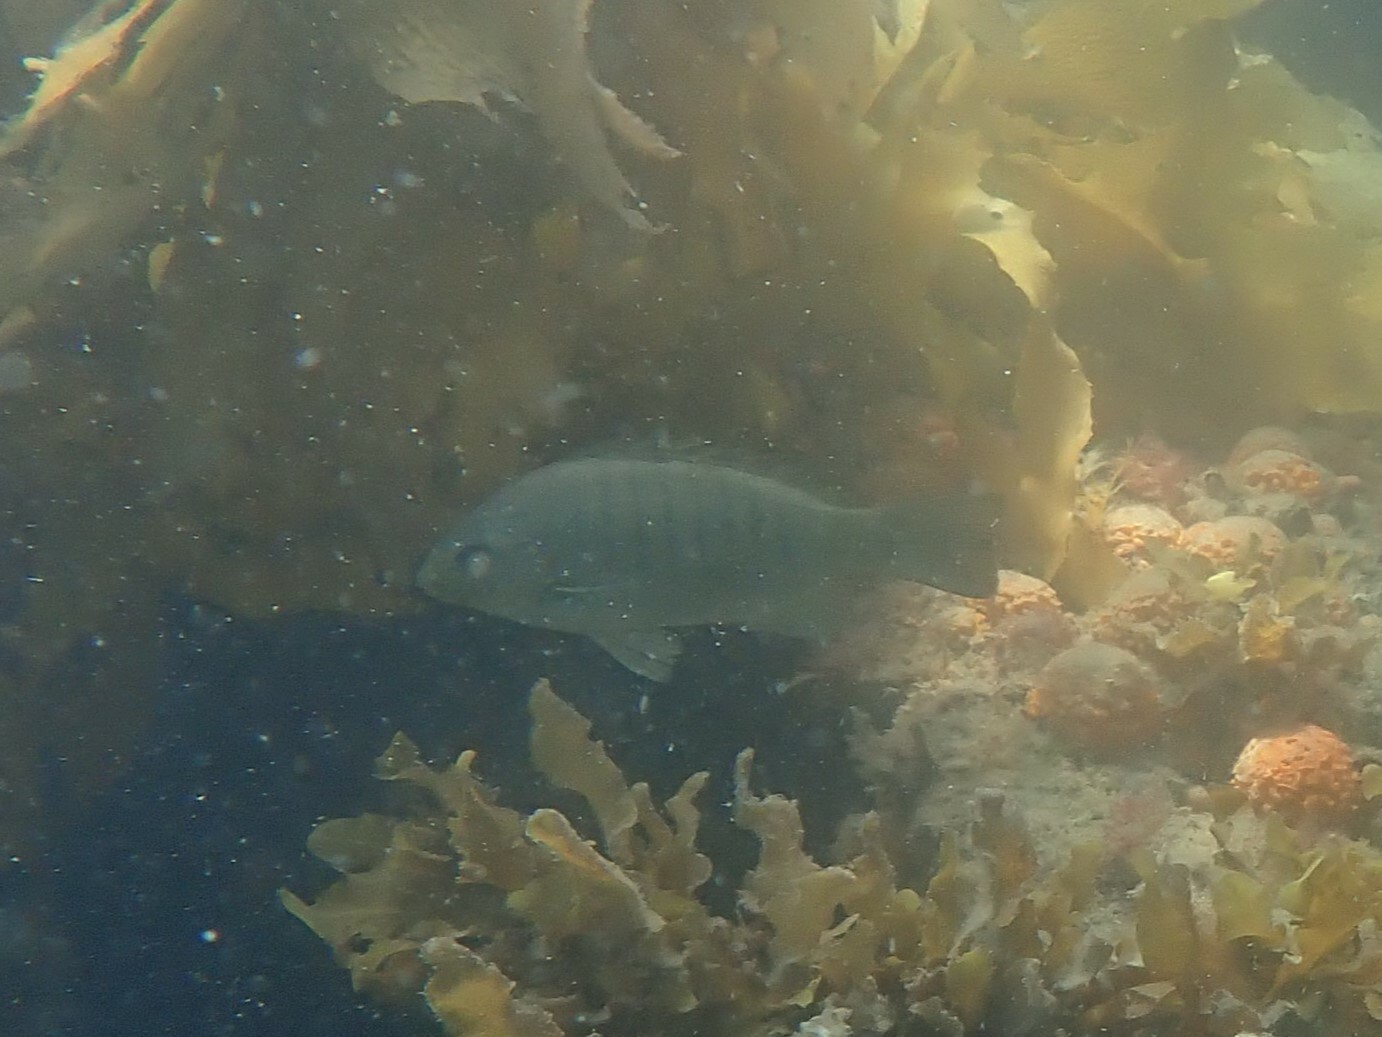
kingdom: Animalia
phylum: Chordata
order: Perciformes
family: Kyphosidae
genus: Girella
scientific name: Girella tricuspidata
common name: Parore
